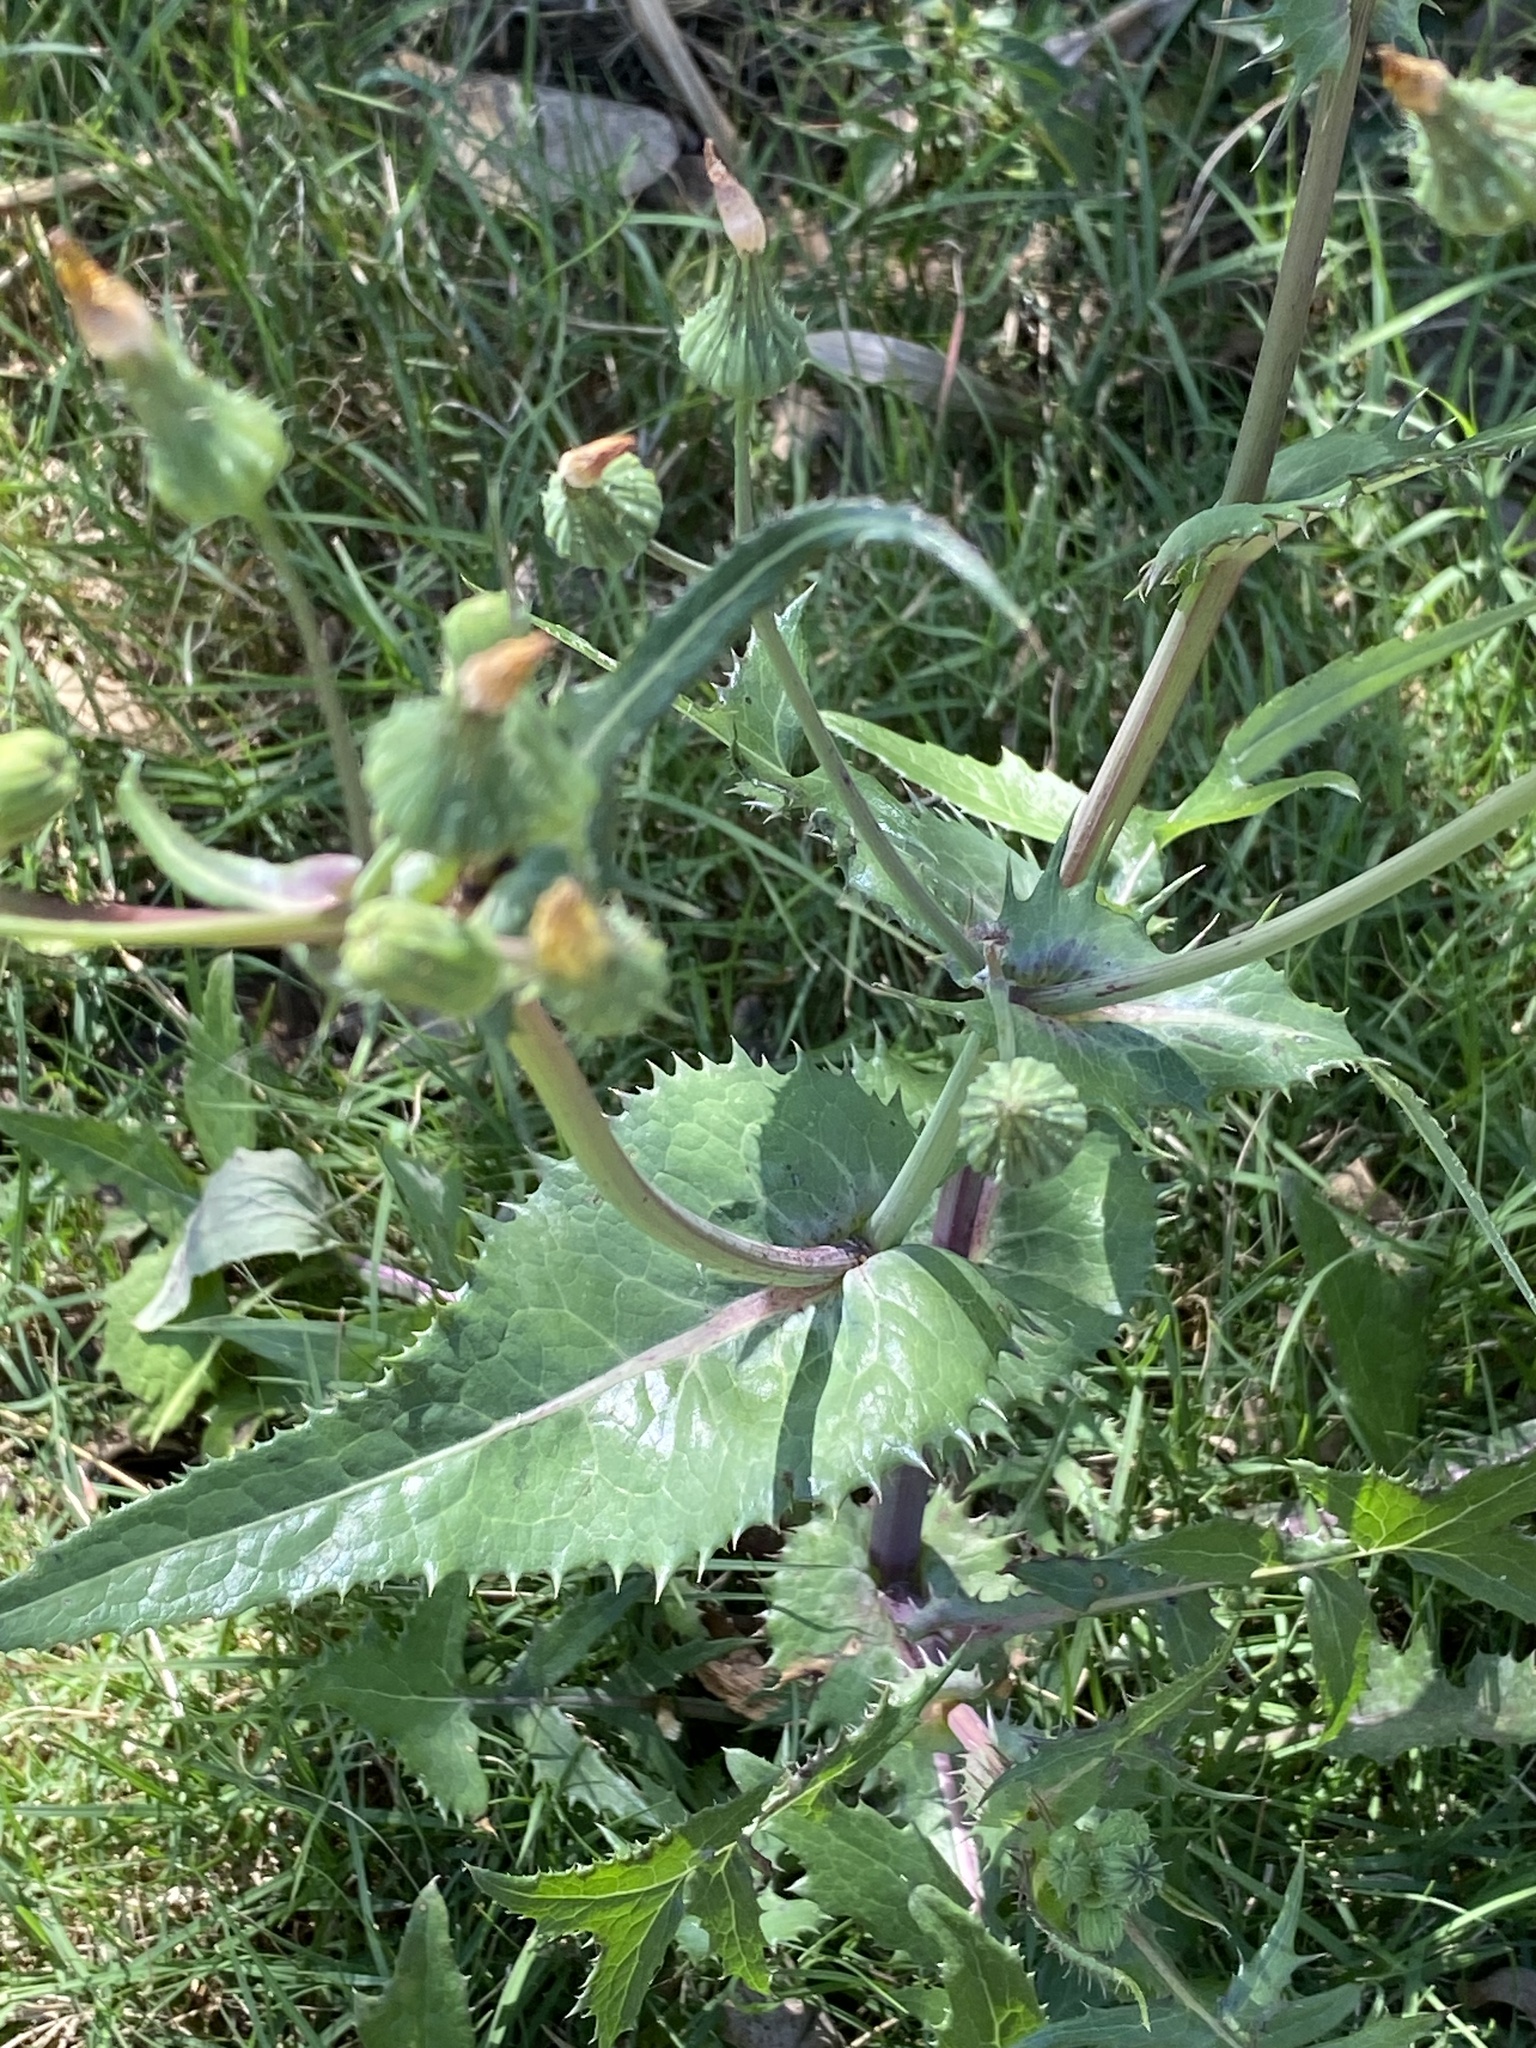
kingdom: Plantae
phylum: Tracheophyta
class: Magnoliopsida
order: Asterales
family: Asteraceae
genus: Crassocephalum
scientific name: Crassocephalum crepidioides
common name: Redflower ragleaf
